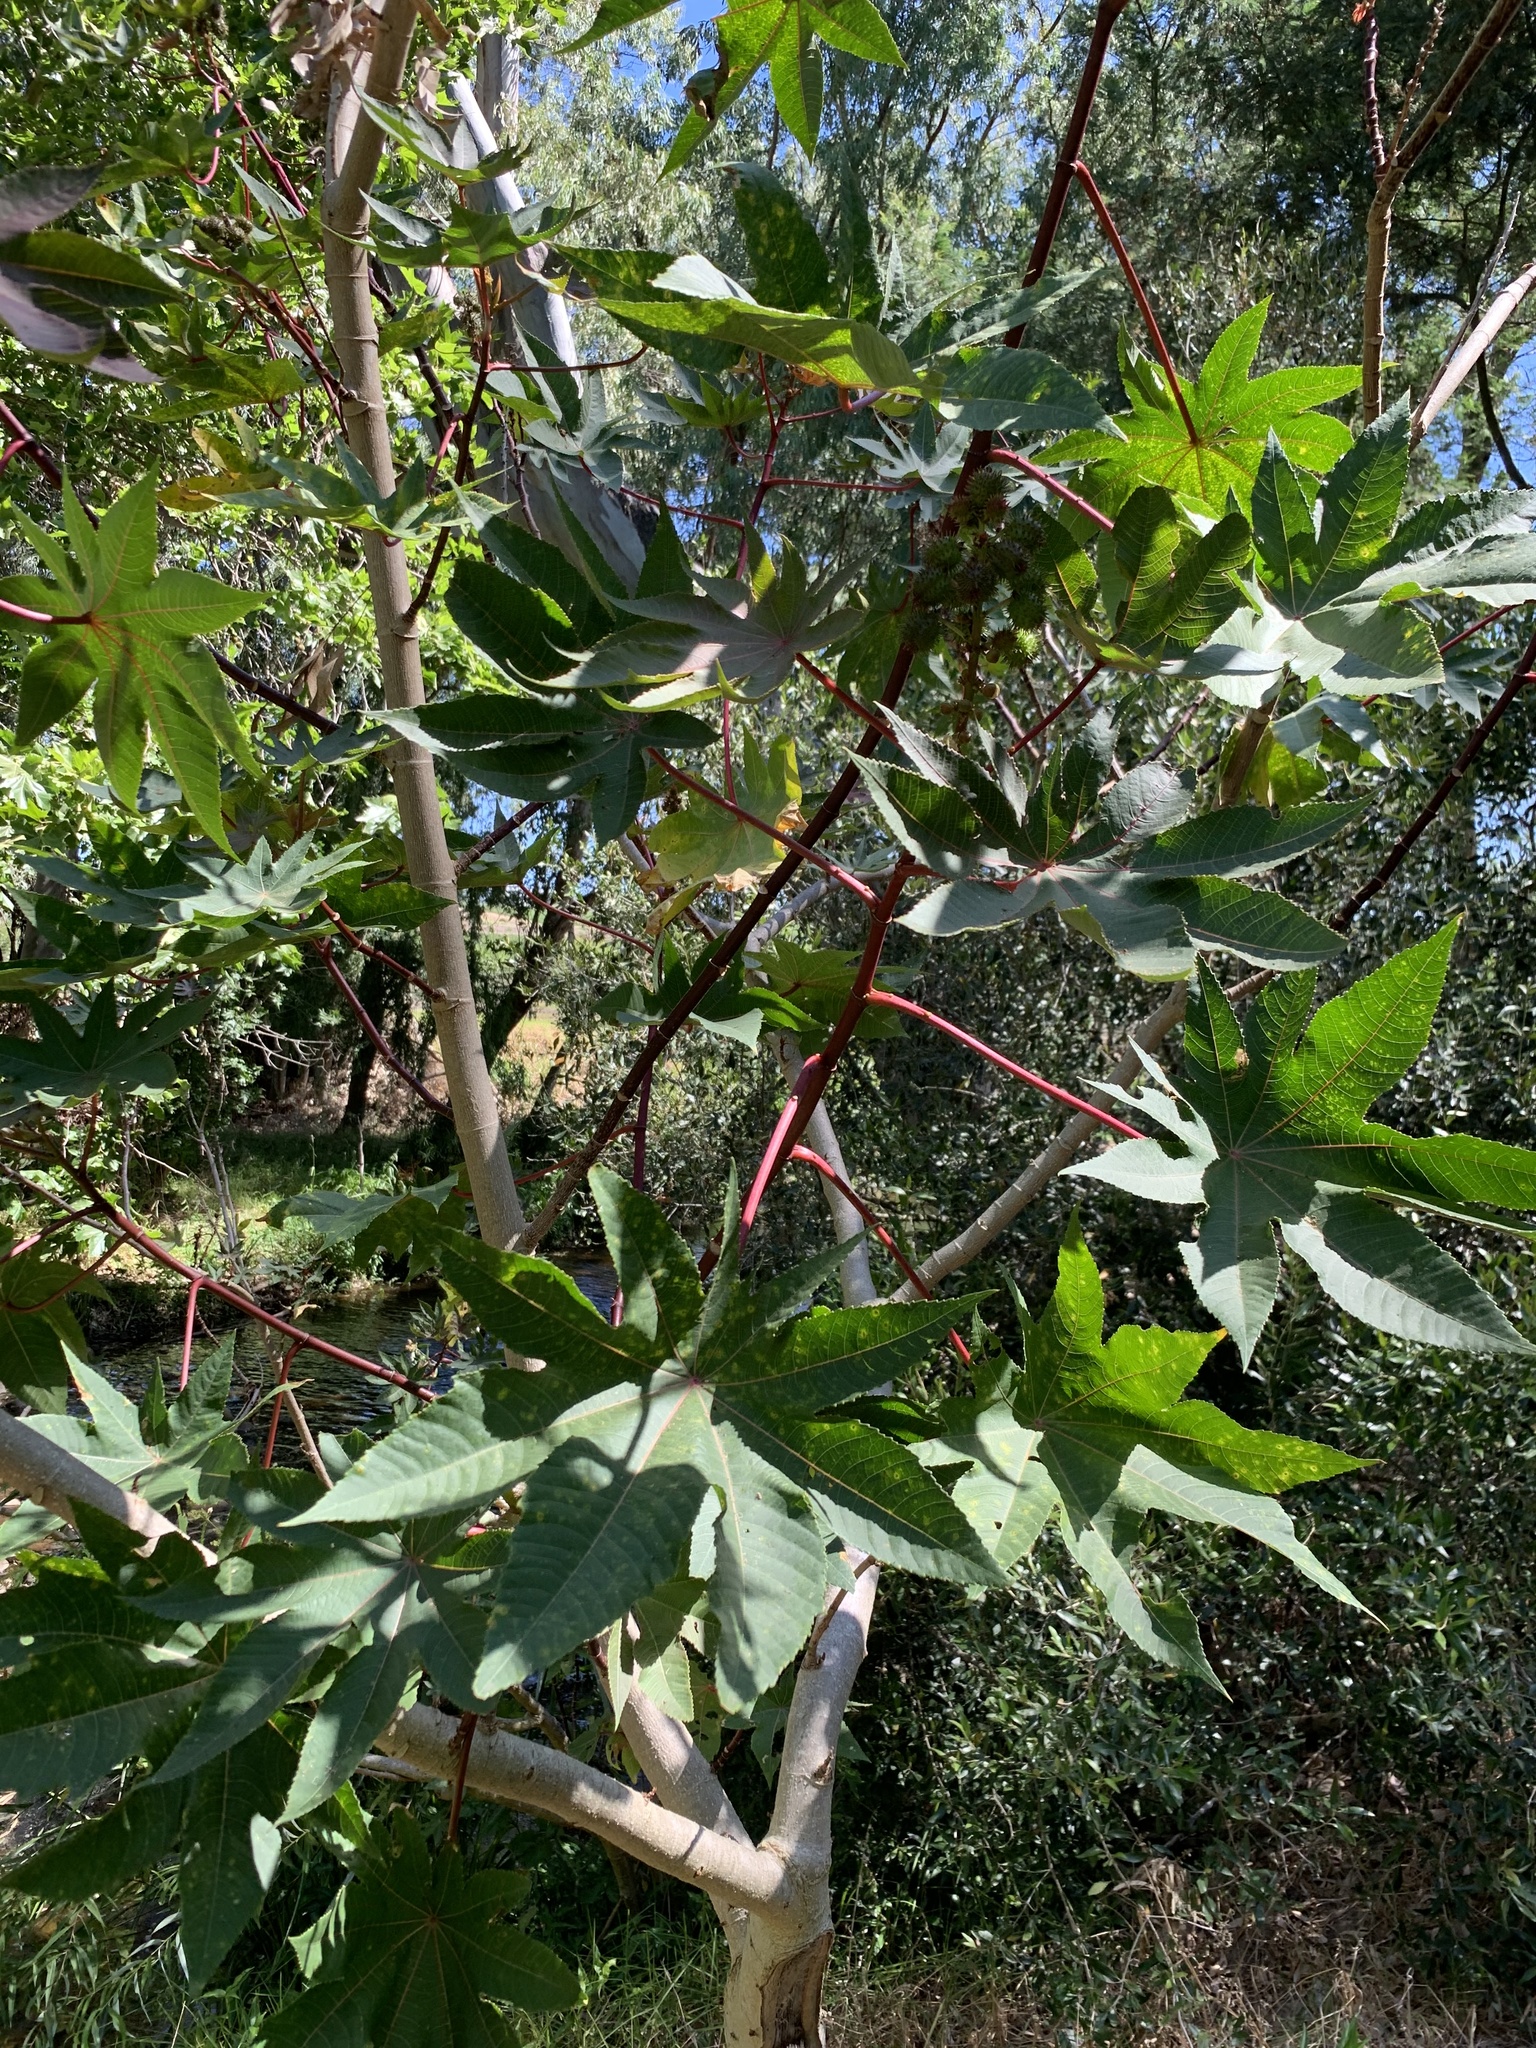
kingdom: Plantae
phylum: Tracheophyta
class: Magnoliopsida
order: Malpighiales
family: Euphorbiaceae
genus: Ricinus
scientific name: Ricinus communis
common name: Castor-oil-plant
